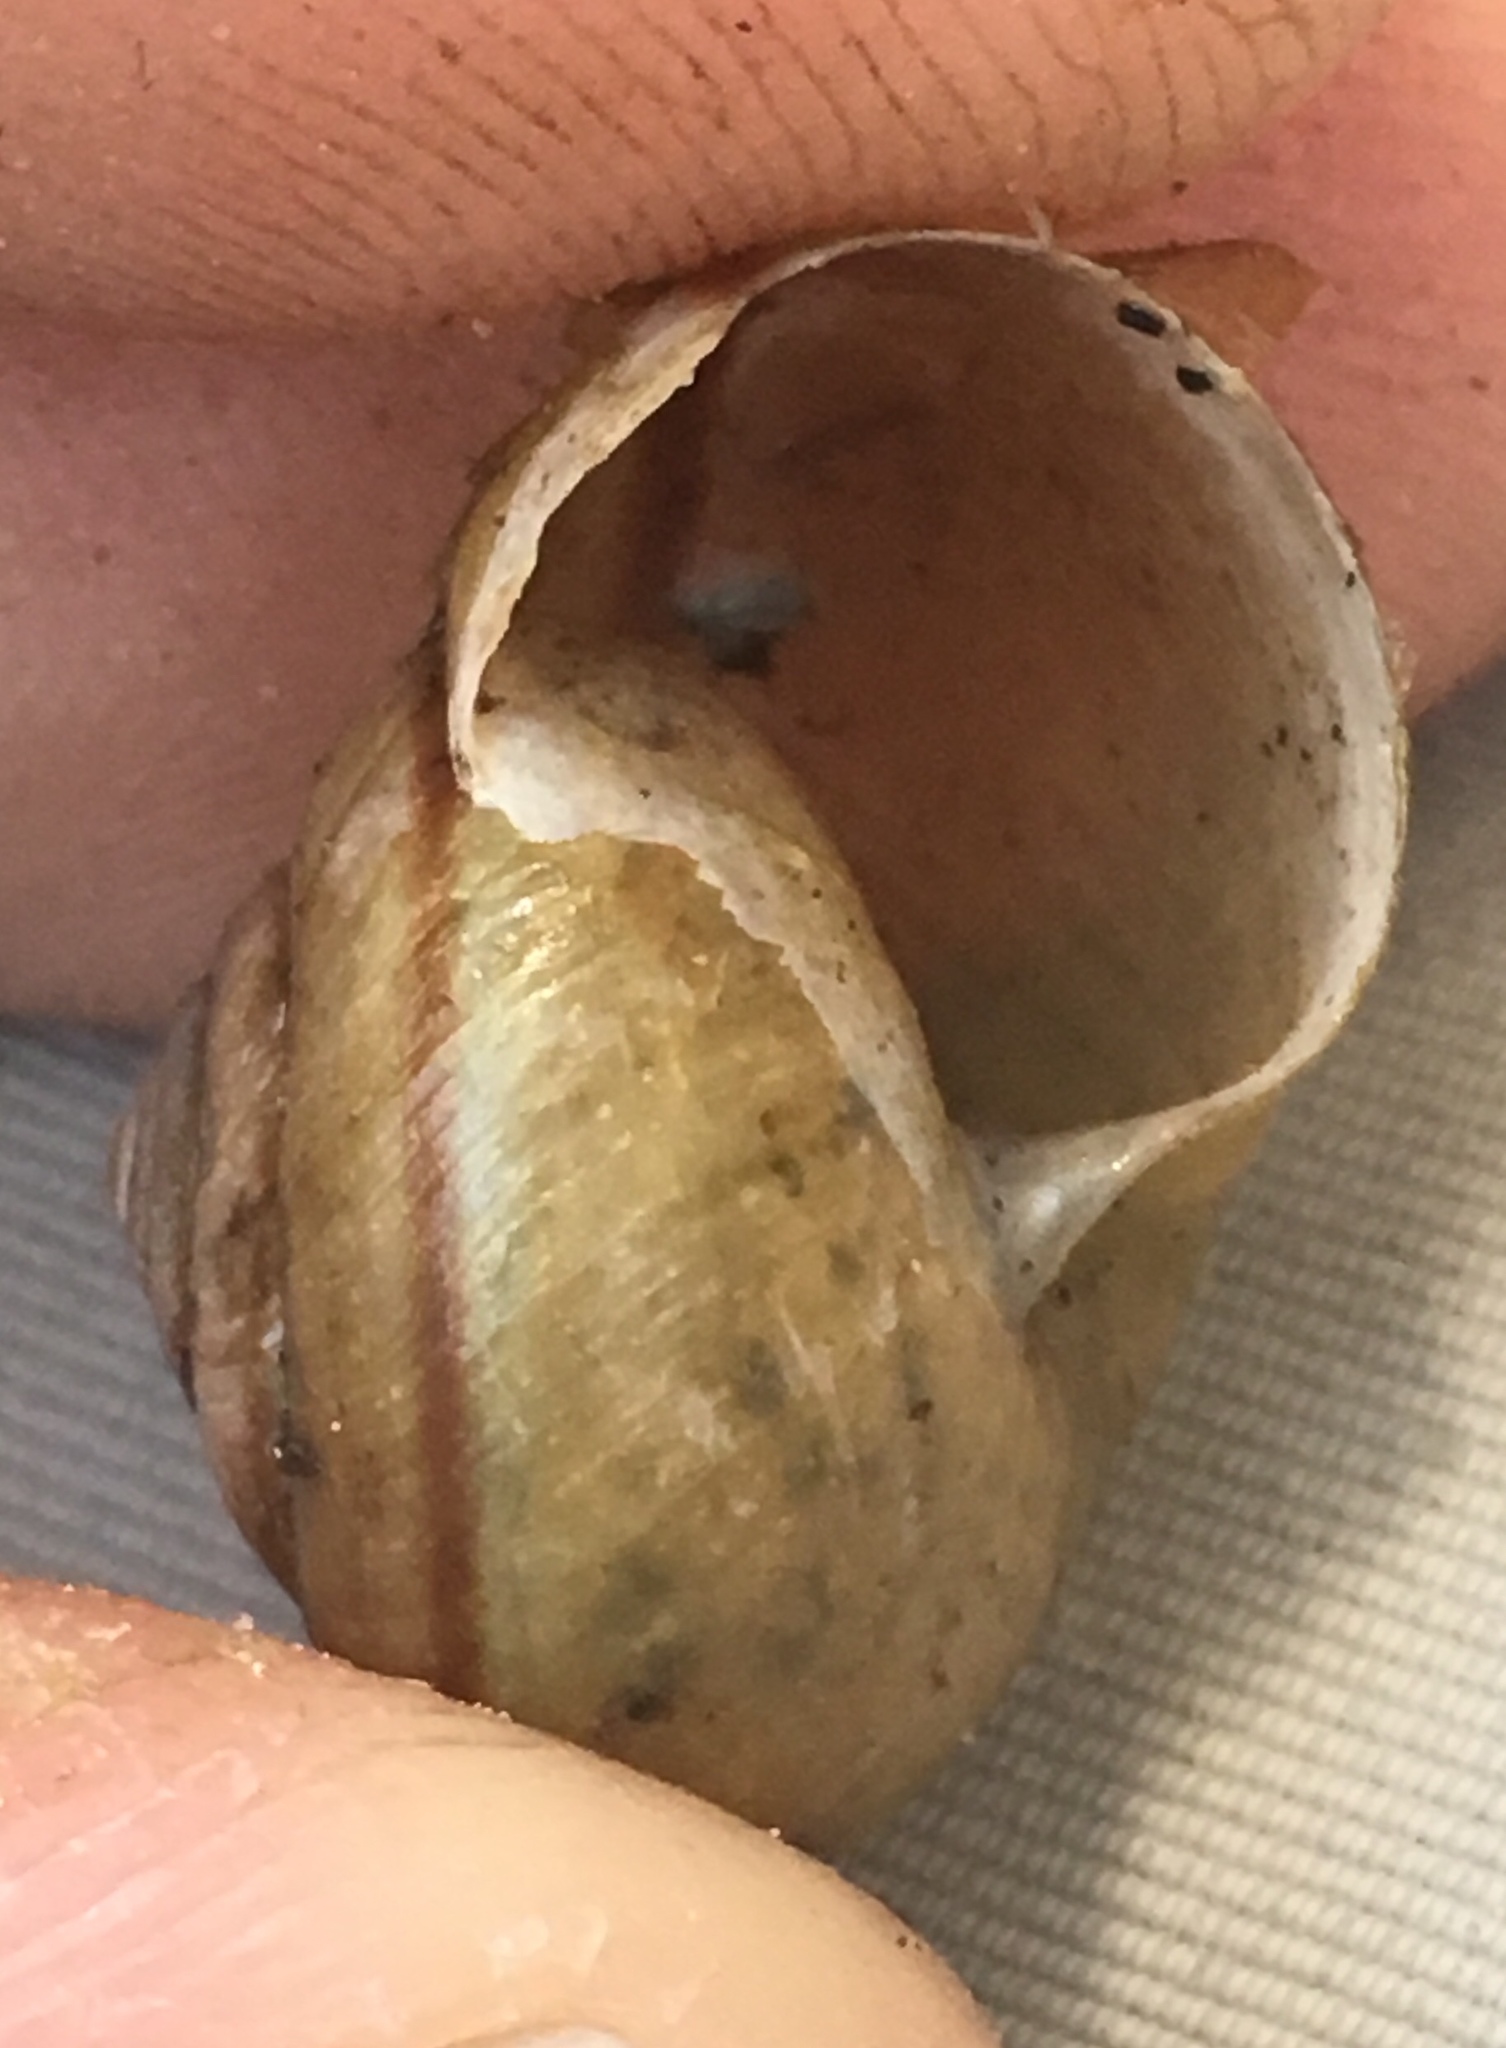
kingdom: Animalia
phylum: Mollusca
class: Gastropoda
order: Stylommatophora
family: Xanthonychidae
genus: Helminthoglypta
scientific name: Helminthoglypta phlyctaena
